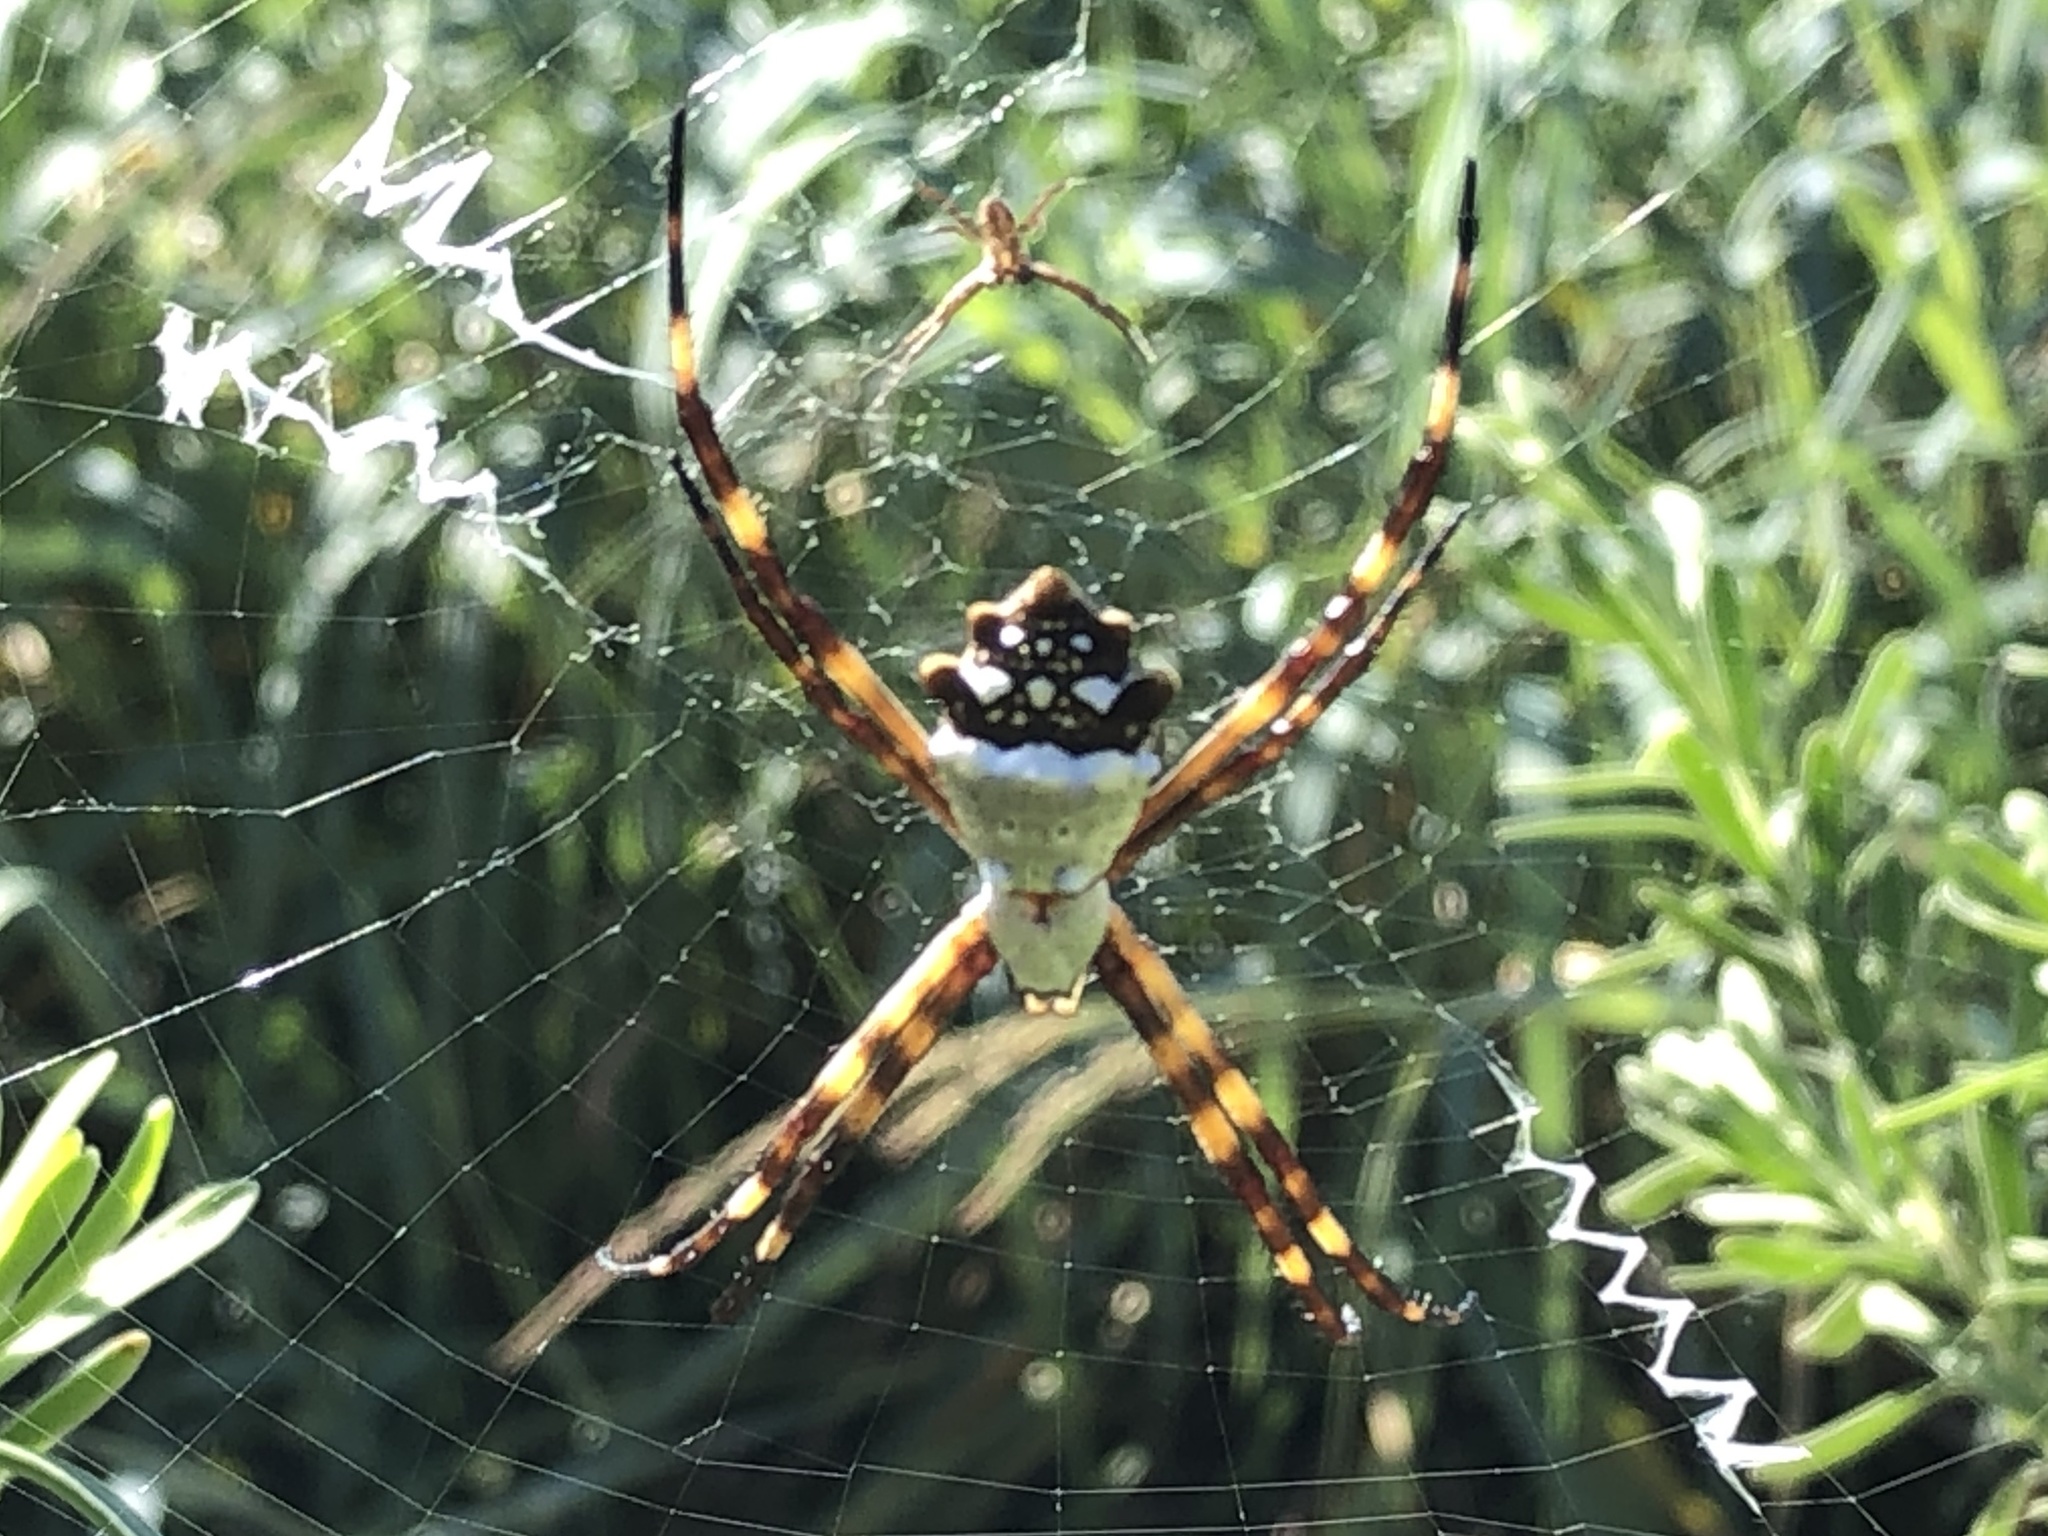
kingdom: Animalia
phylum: Arthropoda
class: Arachnida
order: Araneae
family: Araneidae
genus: Argiope
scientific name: Argiope argentata
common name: Orb weavers
